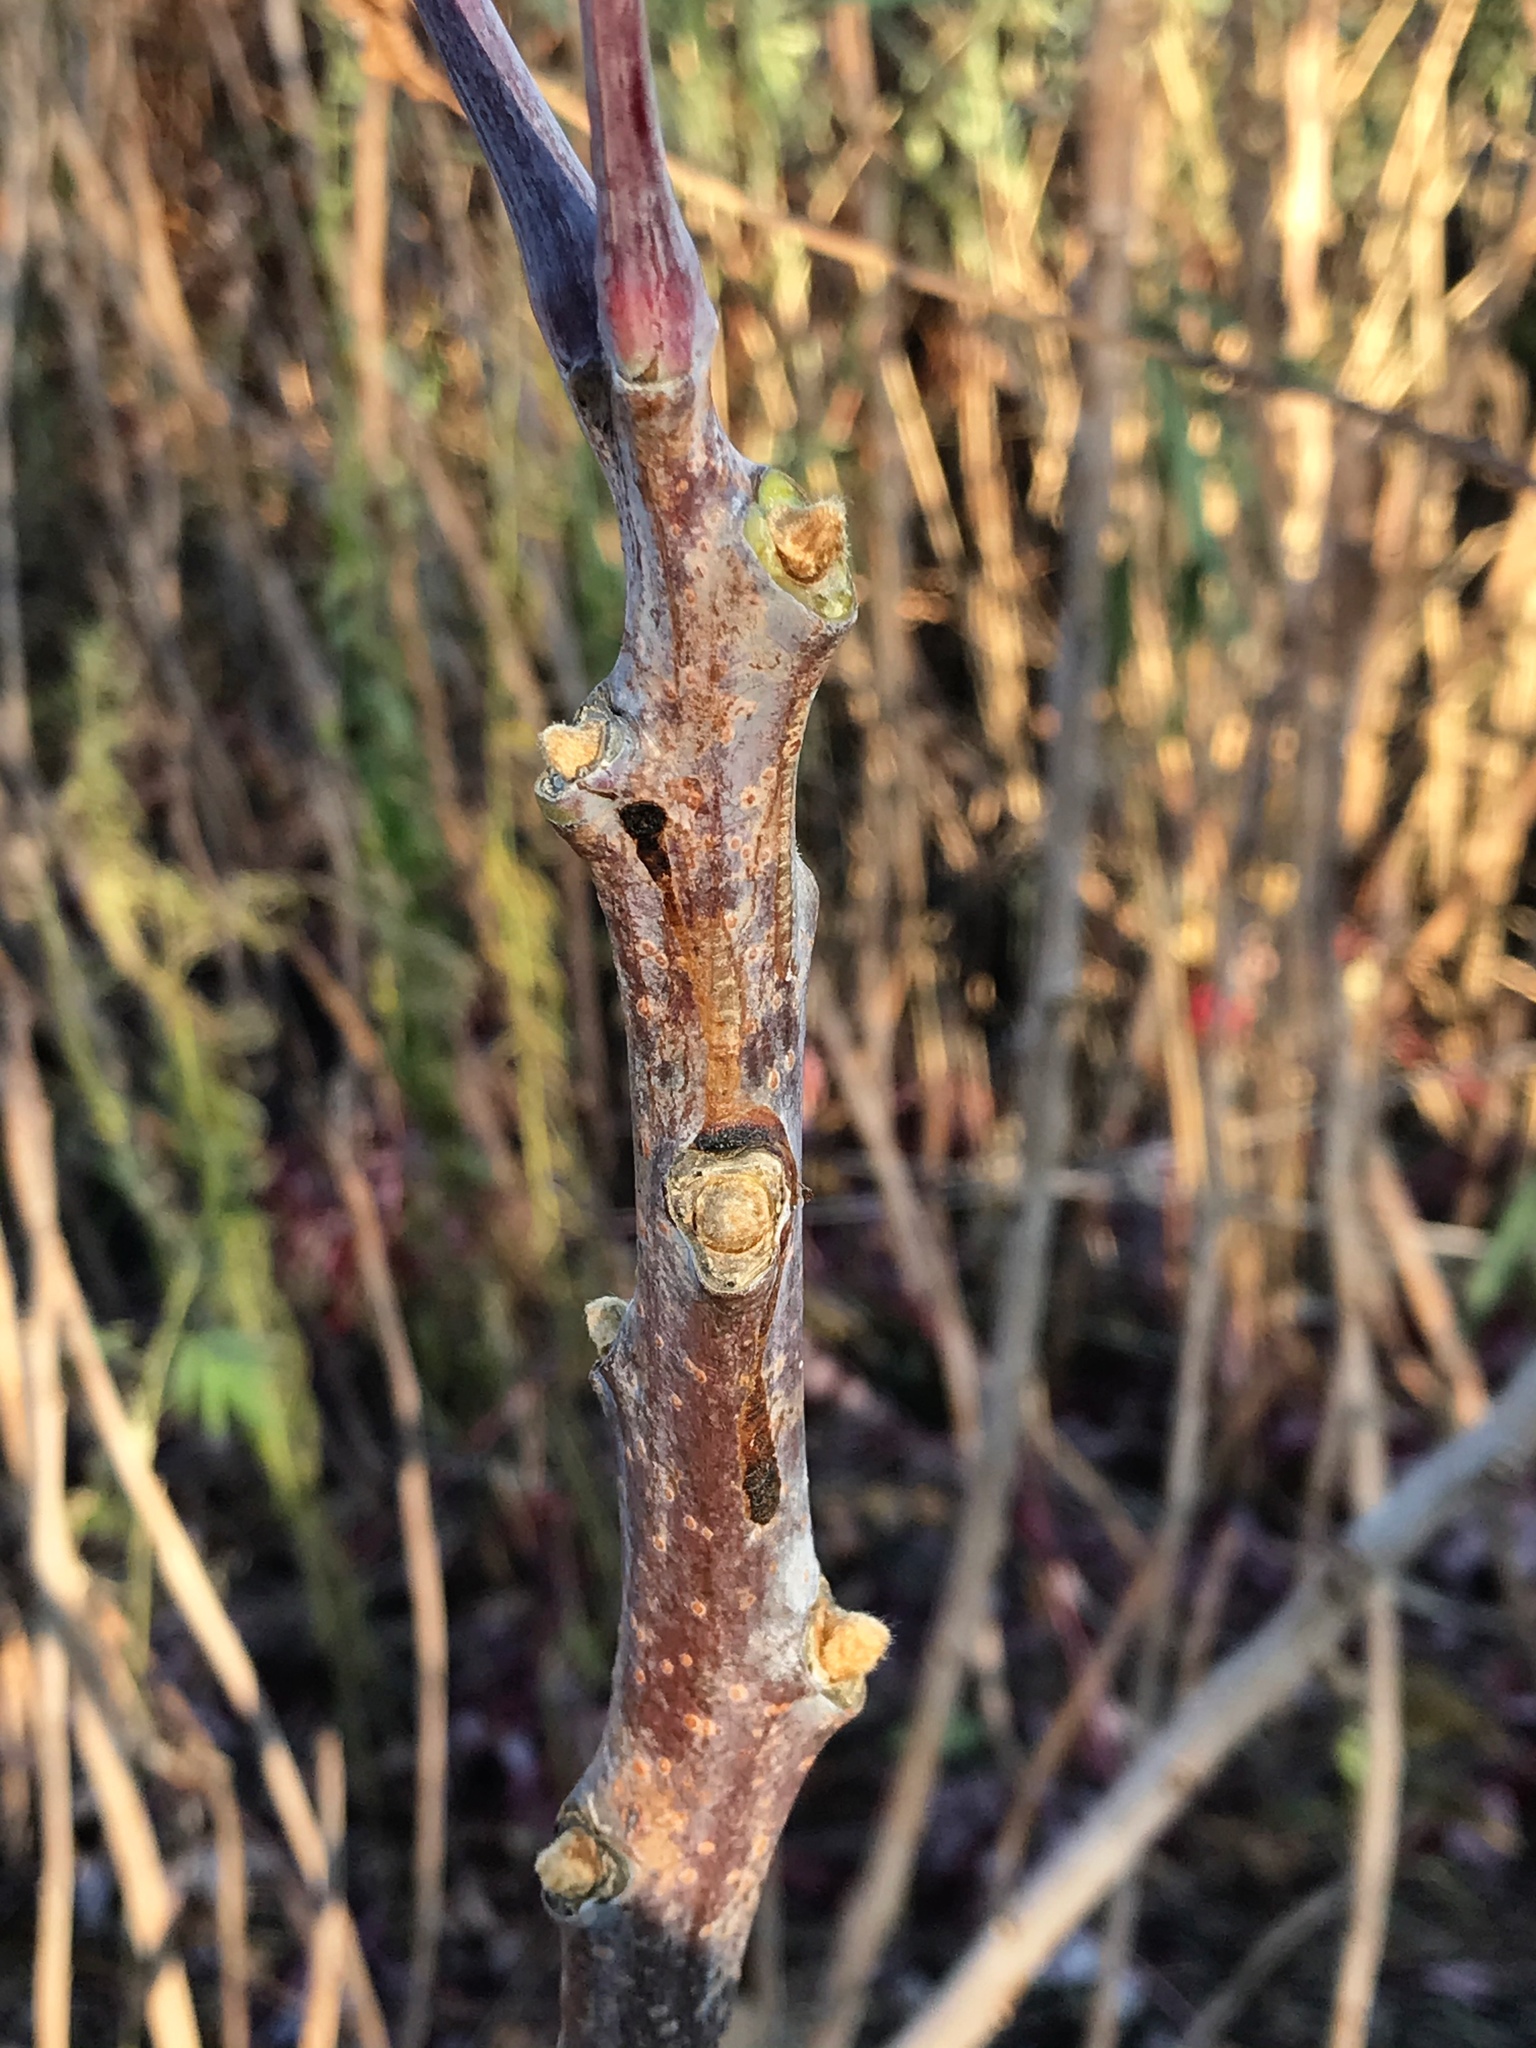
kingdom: Plantae
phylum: Tracheophyta
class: Magnoliopsida
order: Sapindales
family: Anacardiaceae
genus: Rhus
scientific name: Rhus glabra
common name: Scarlet sumac
